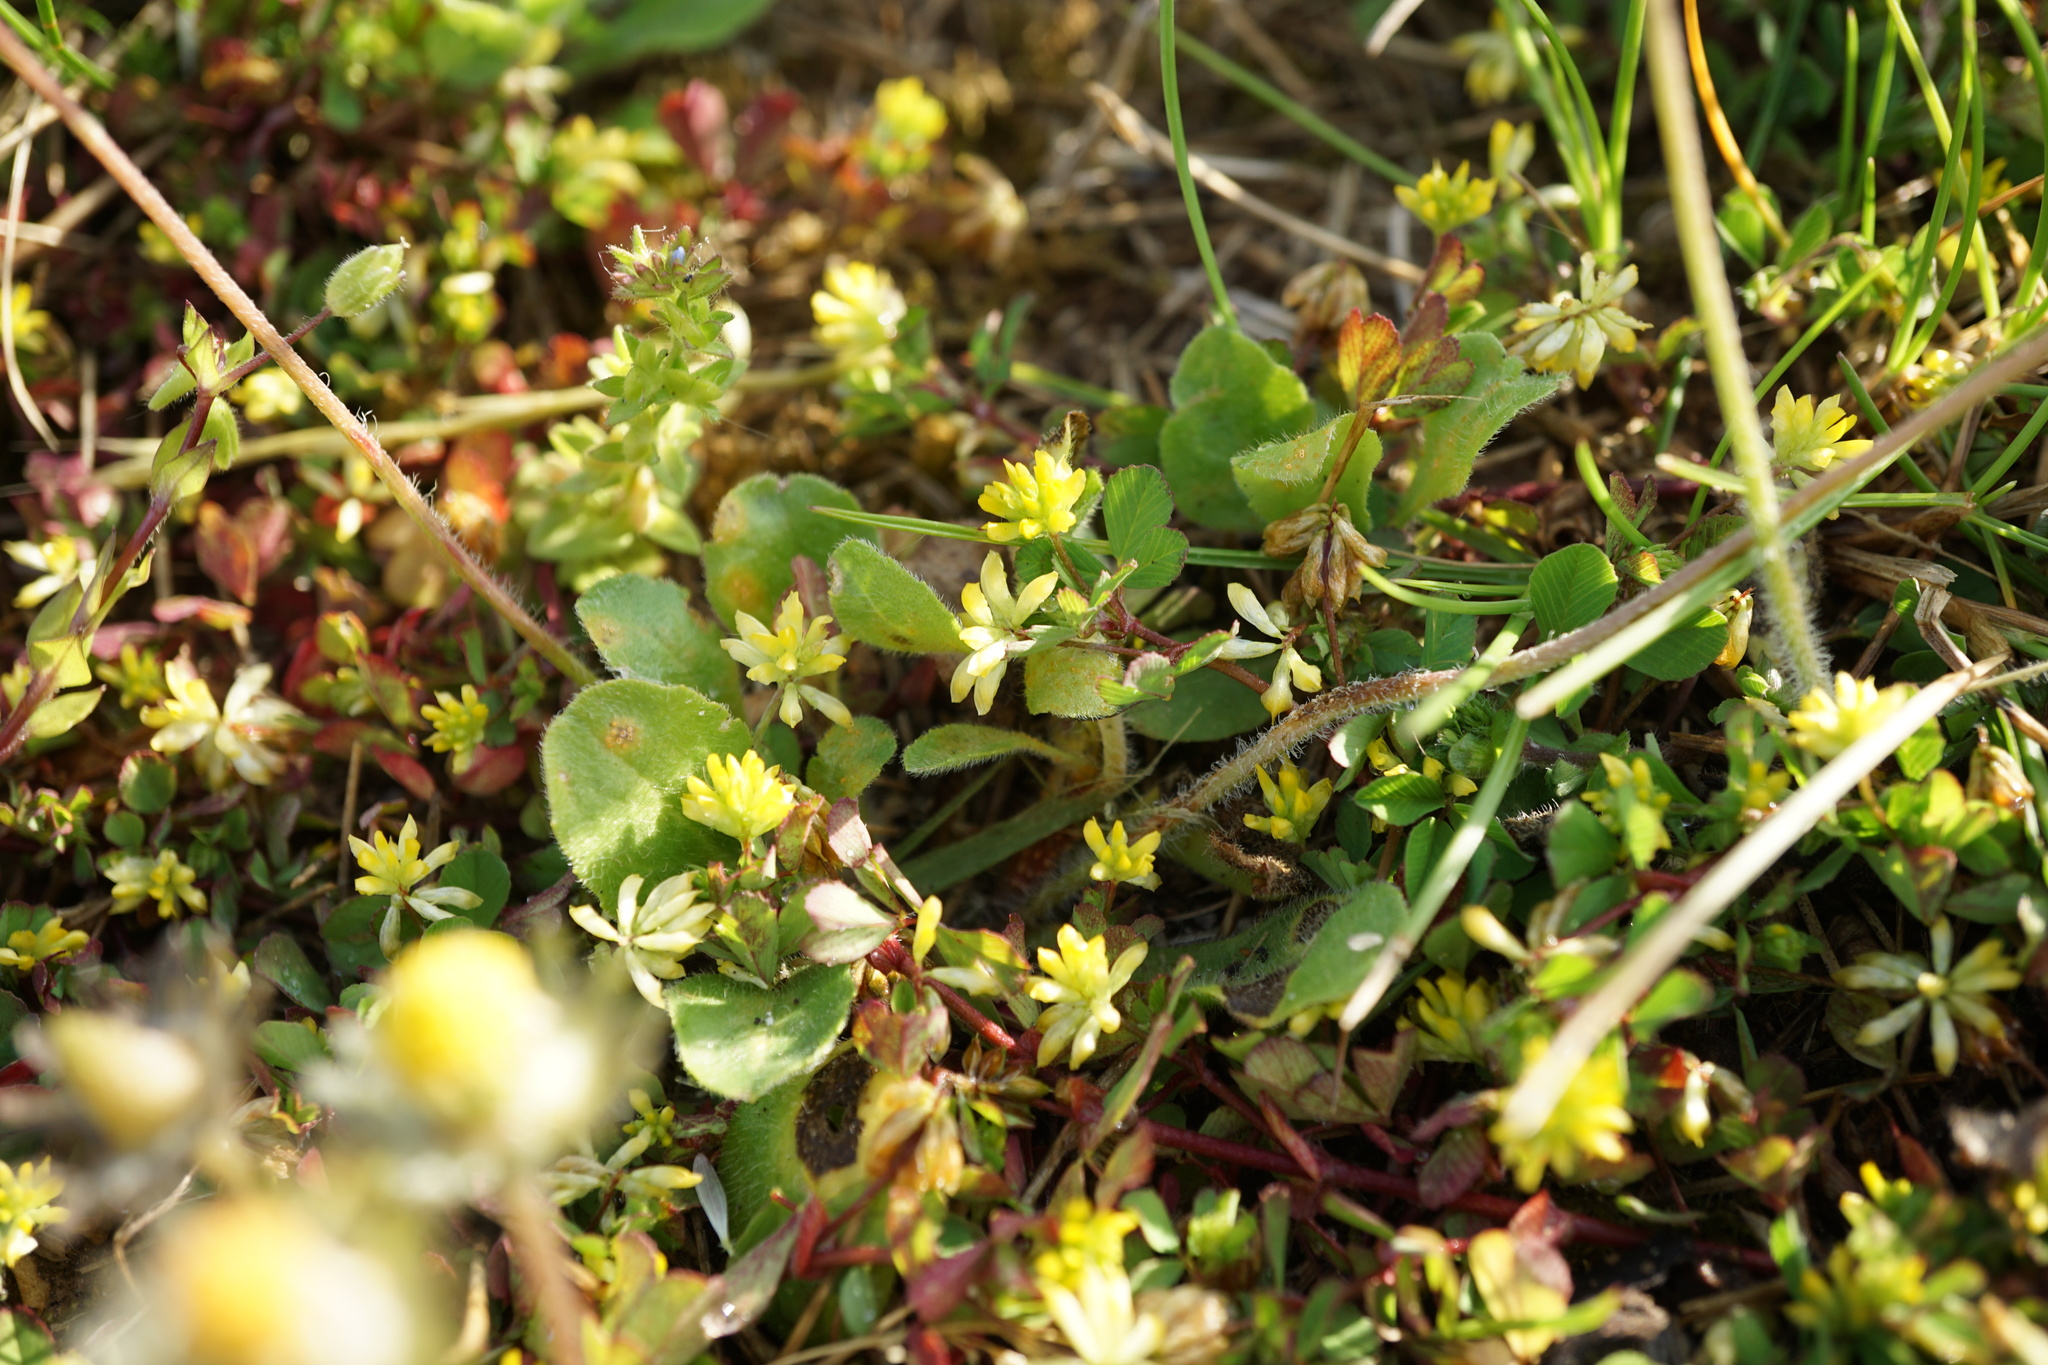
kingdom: Plantae
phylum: Tracheophyta
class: Magnoliopsida
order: Fabales
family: Fabaceae
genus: Trifolium
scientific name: Trifolium dubium
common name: Suckling clover
